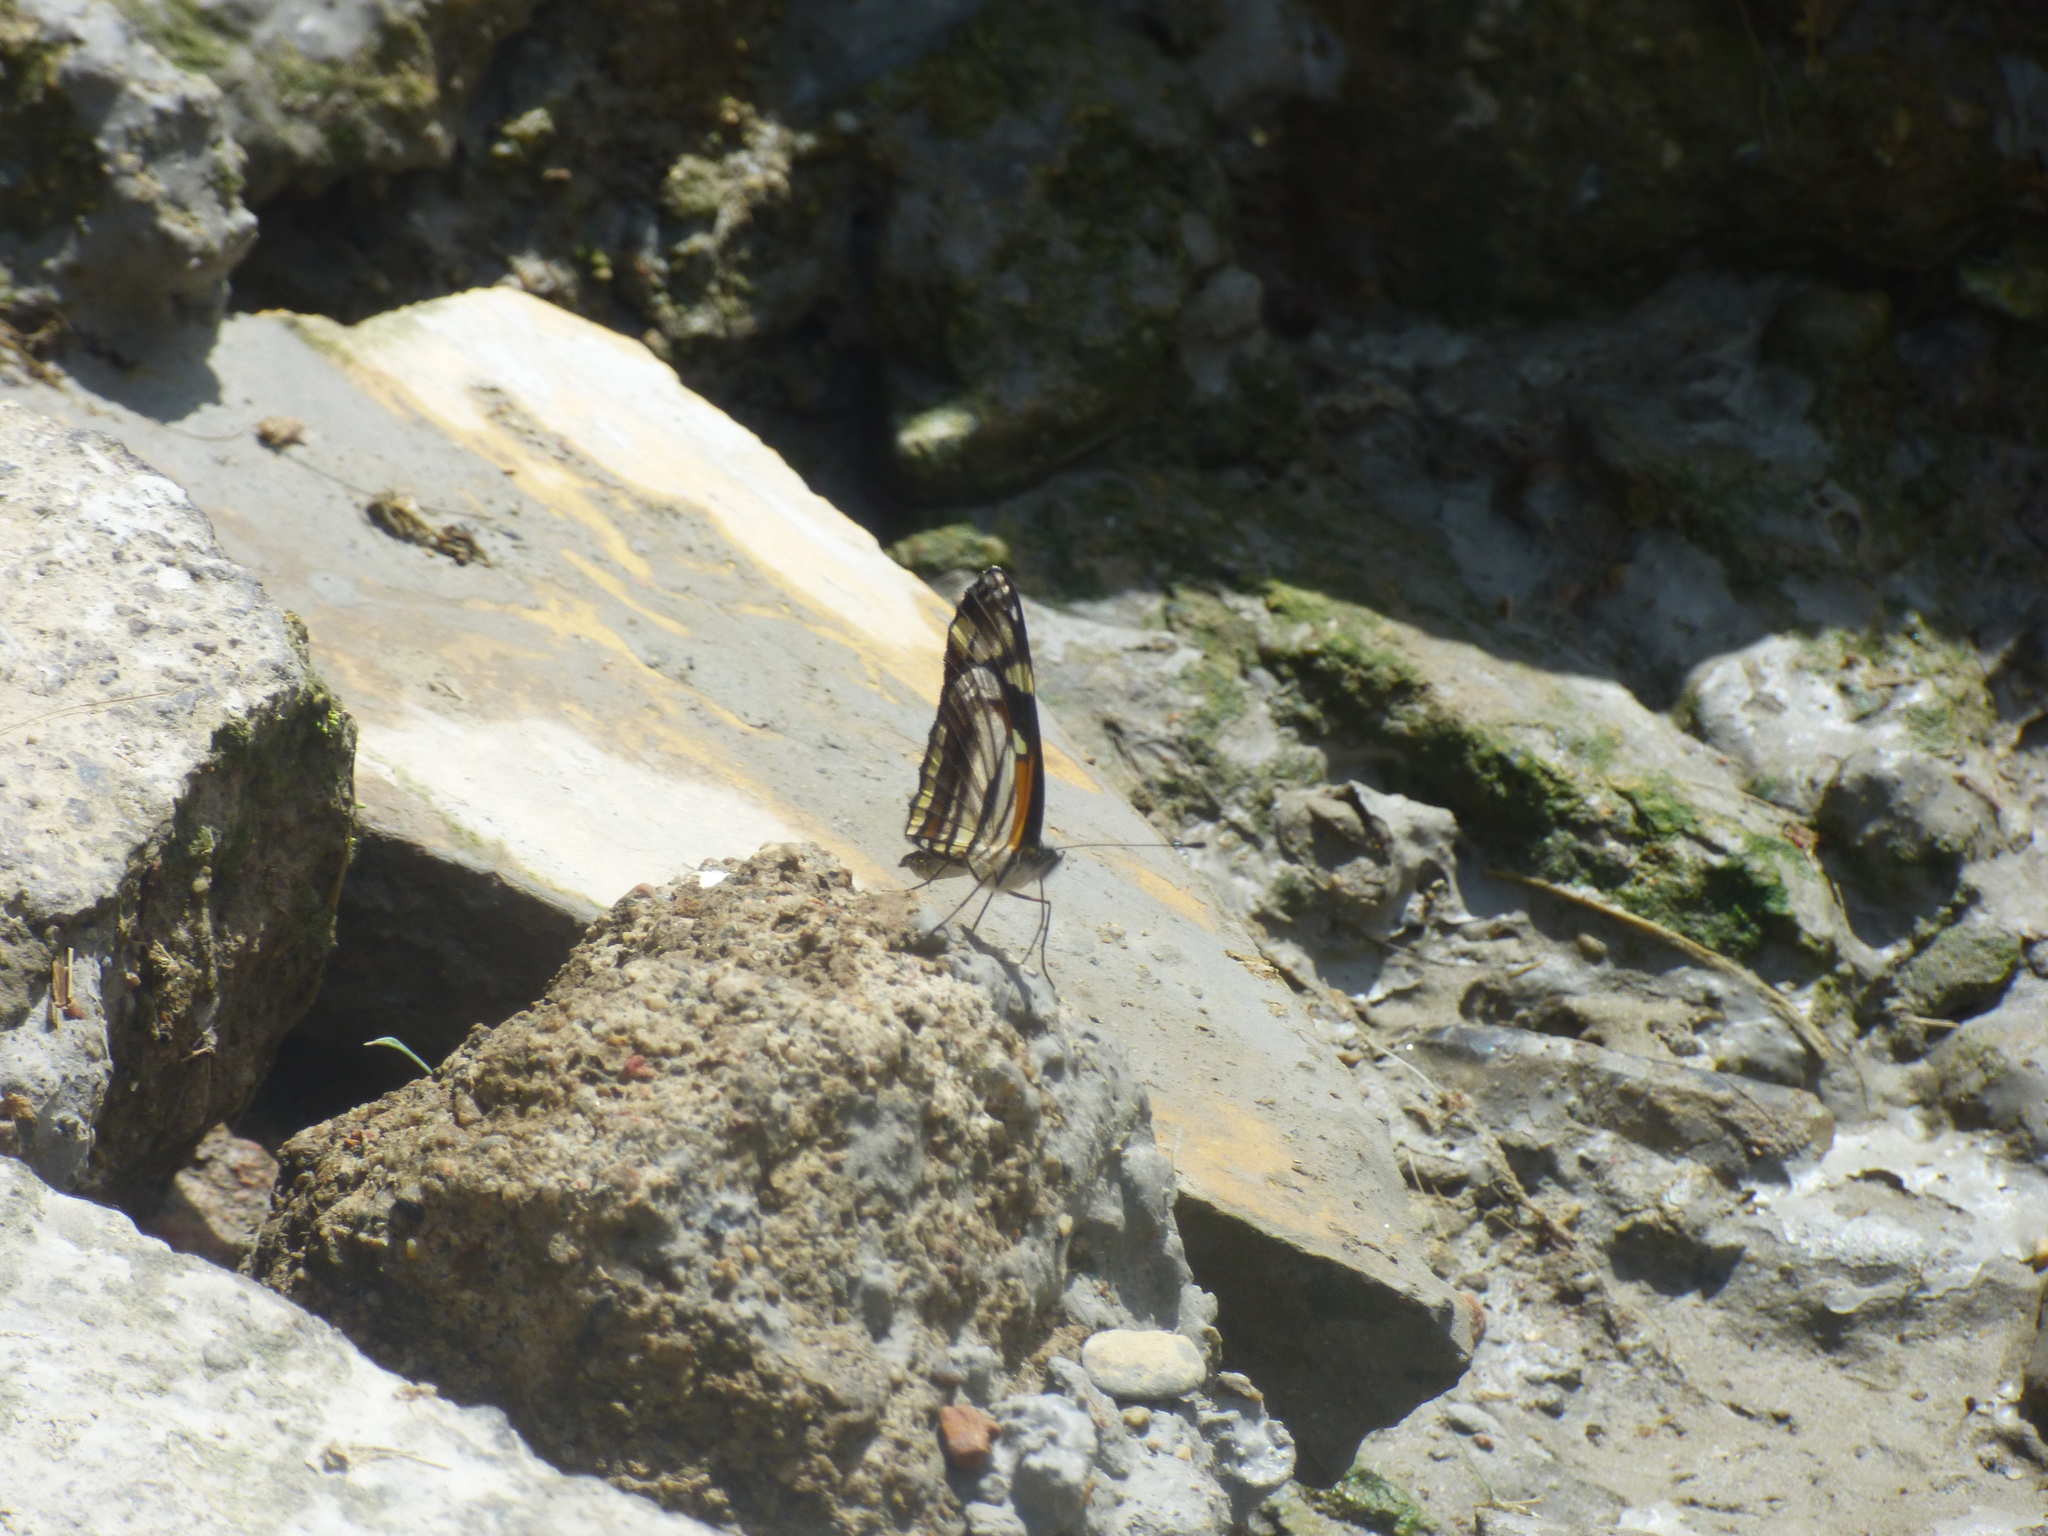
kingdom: Animalia
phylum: Arthropoda
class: Insecta
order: Lepidoptera
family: Nymphalidae
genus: Eresia
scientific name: Eresia polina
